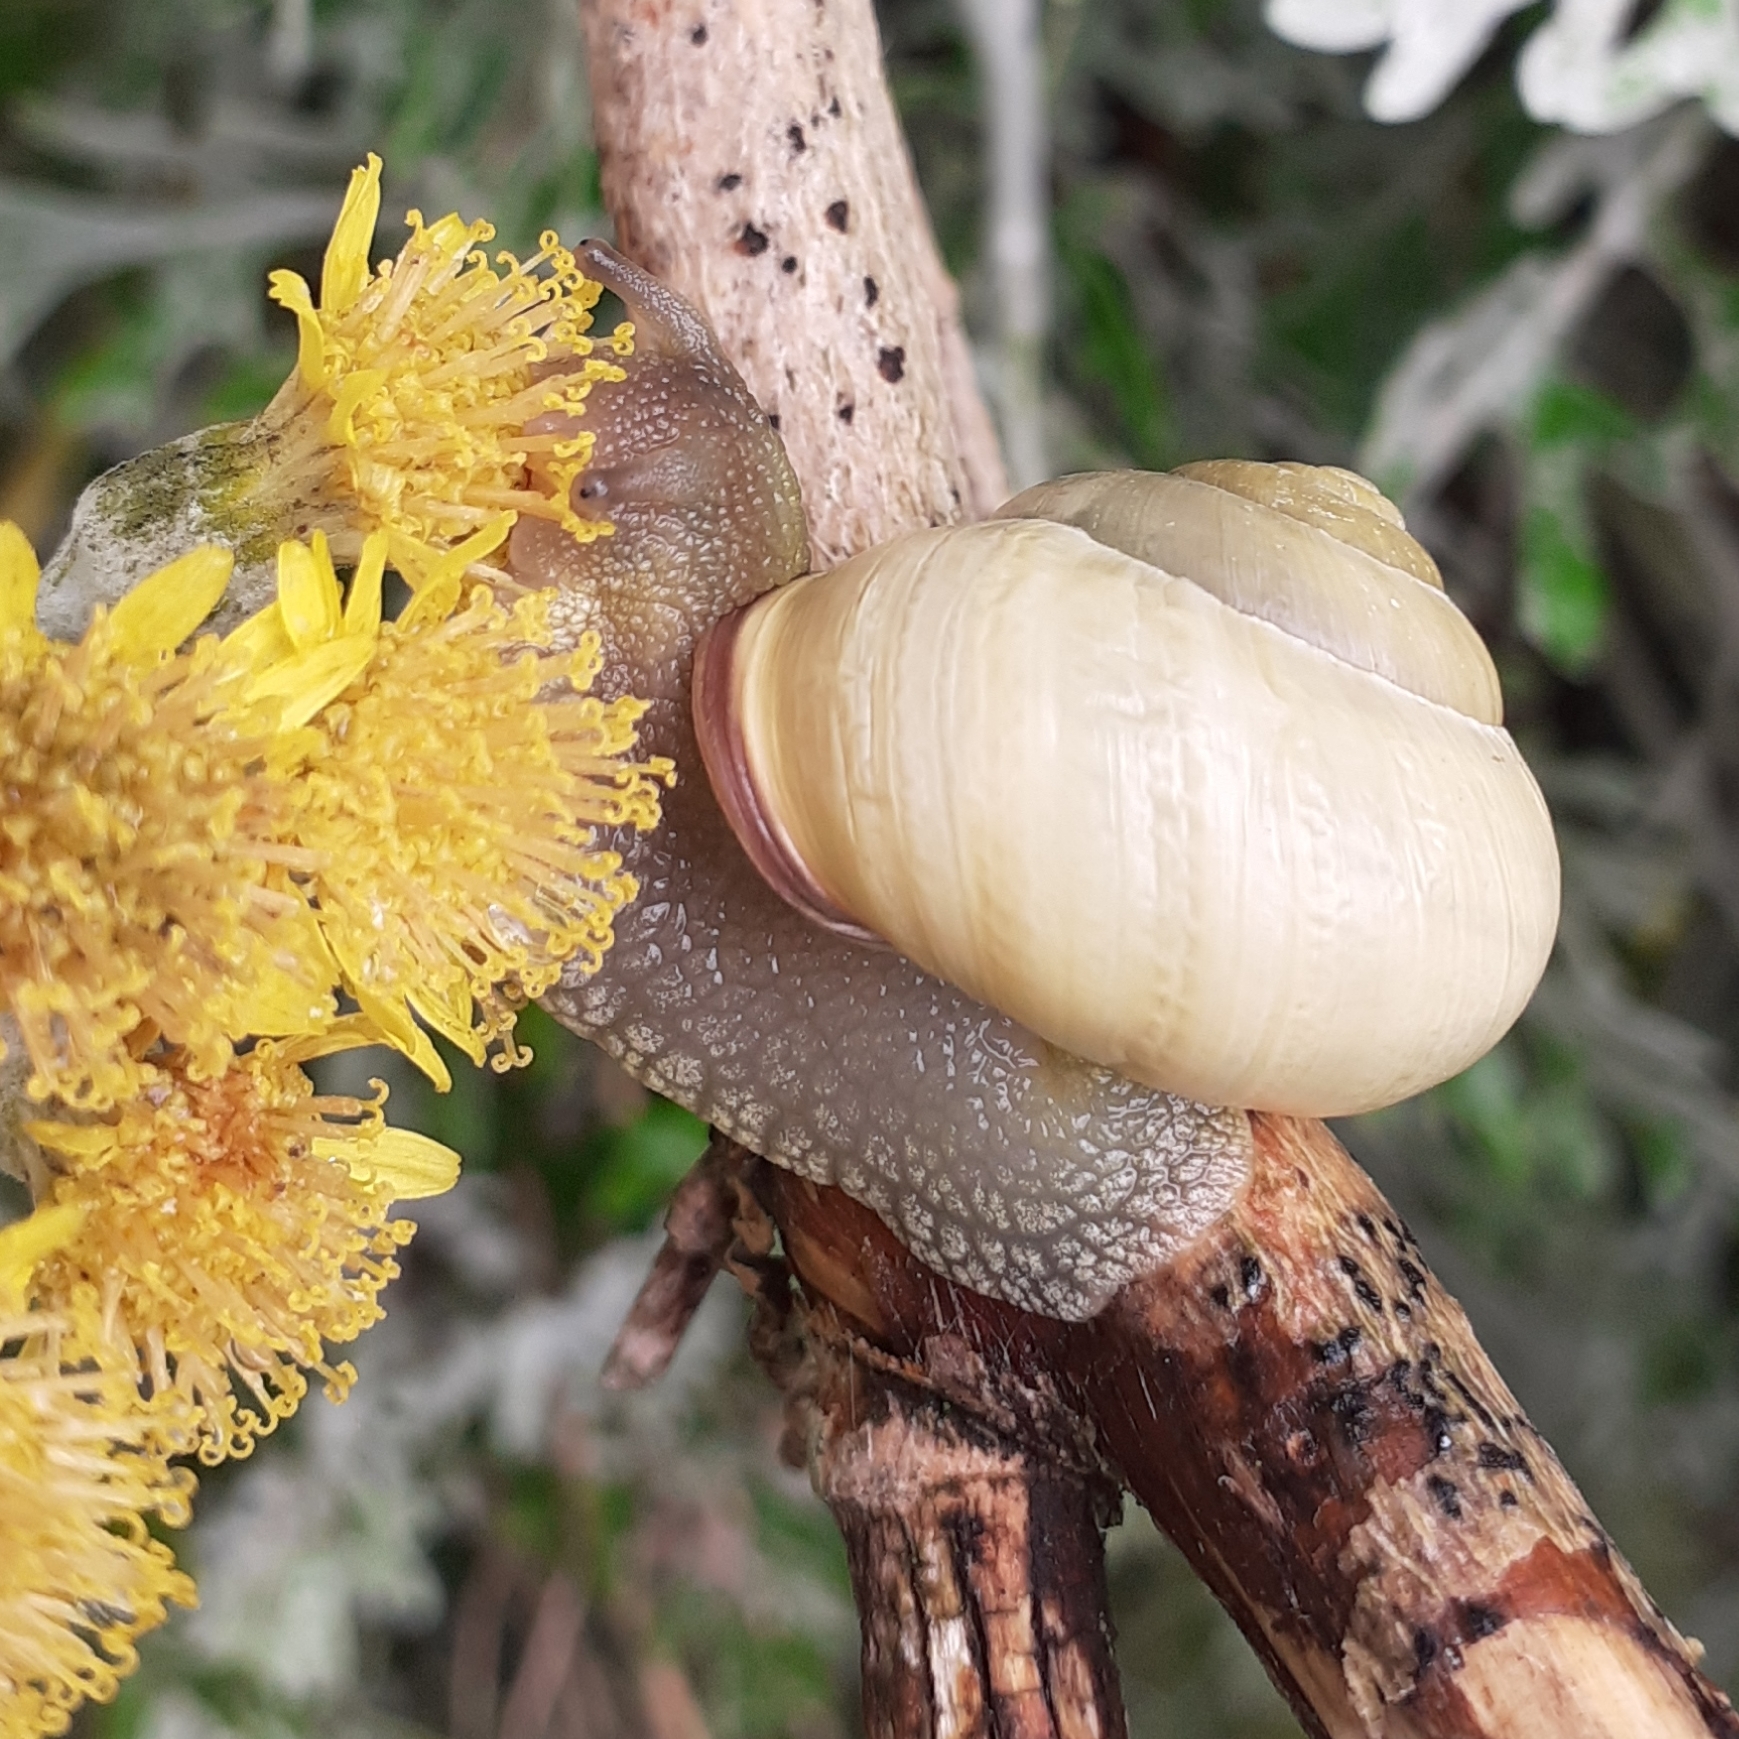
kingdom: Animalia
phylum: Mollusca
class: Gastropoda
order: Stylommatophora
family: Helicidae
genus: Cepaea
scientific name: Cepaea nemoralis
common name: Grovesnail
